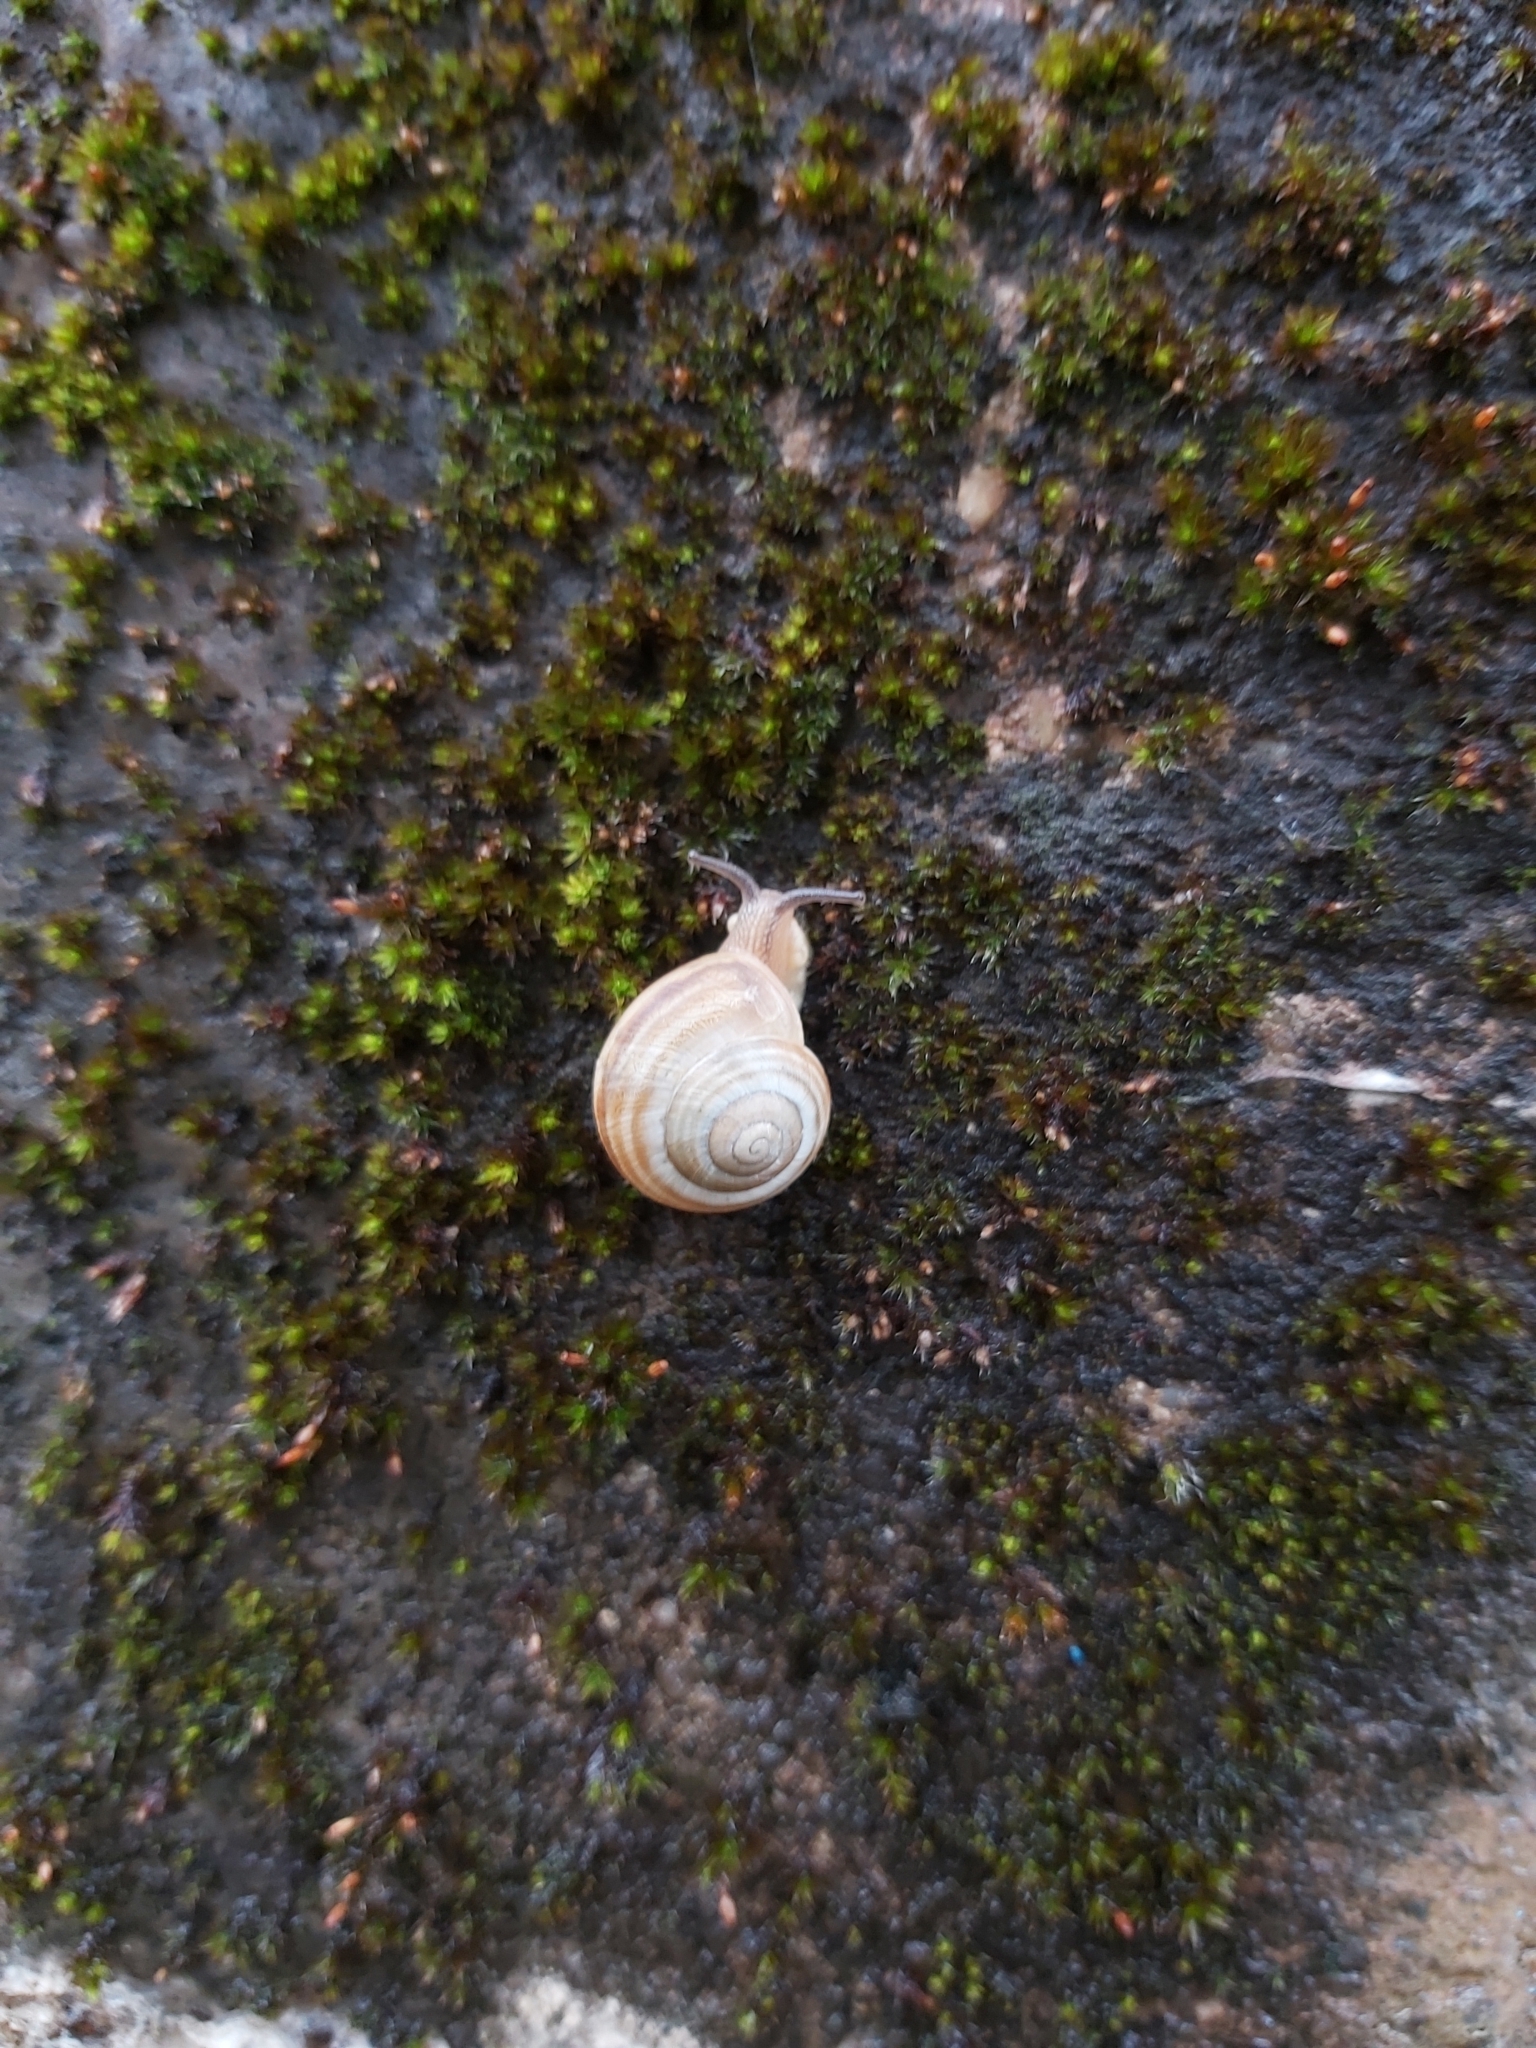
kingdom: Animalia
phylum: Mollusca
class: Gastropoda
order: Stylommatophora
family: Helicidae
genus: Caucasotachea
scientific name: Caucasotachea vindobonensis
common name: European helicid land snail
